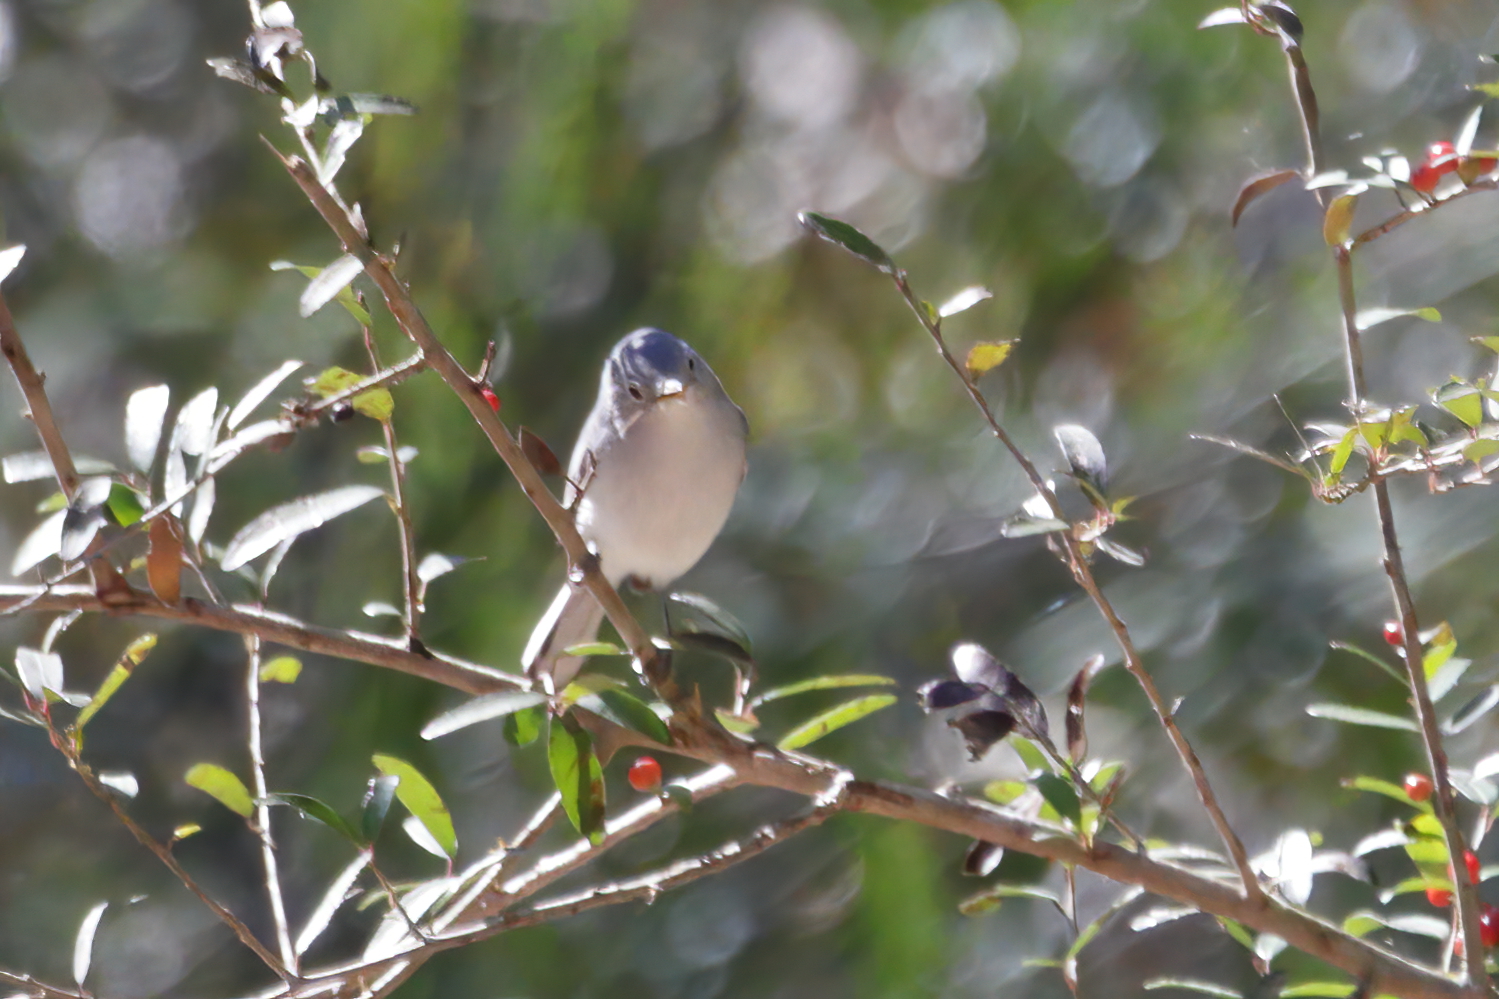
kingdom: Animalia
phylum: Chordata
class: Aves
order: Passeriformes
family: Polioptilidae
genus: Polioptila
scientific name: Polioptila caerulea
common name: Blue-gray gnatcatcher
